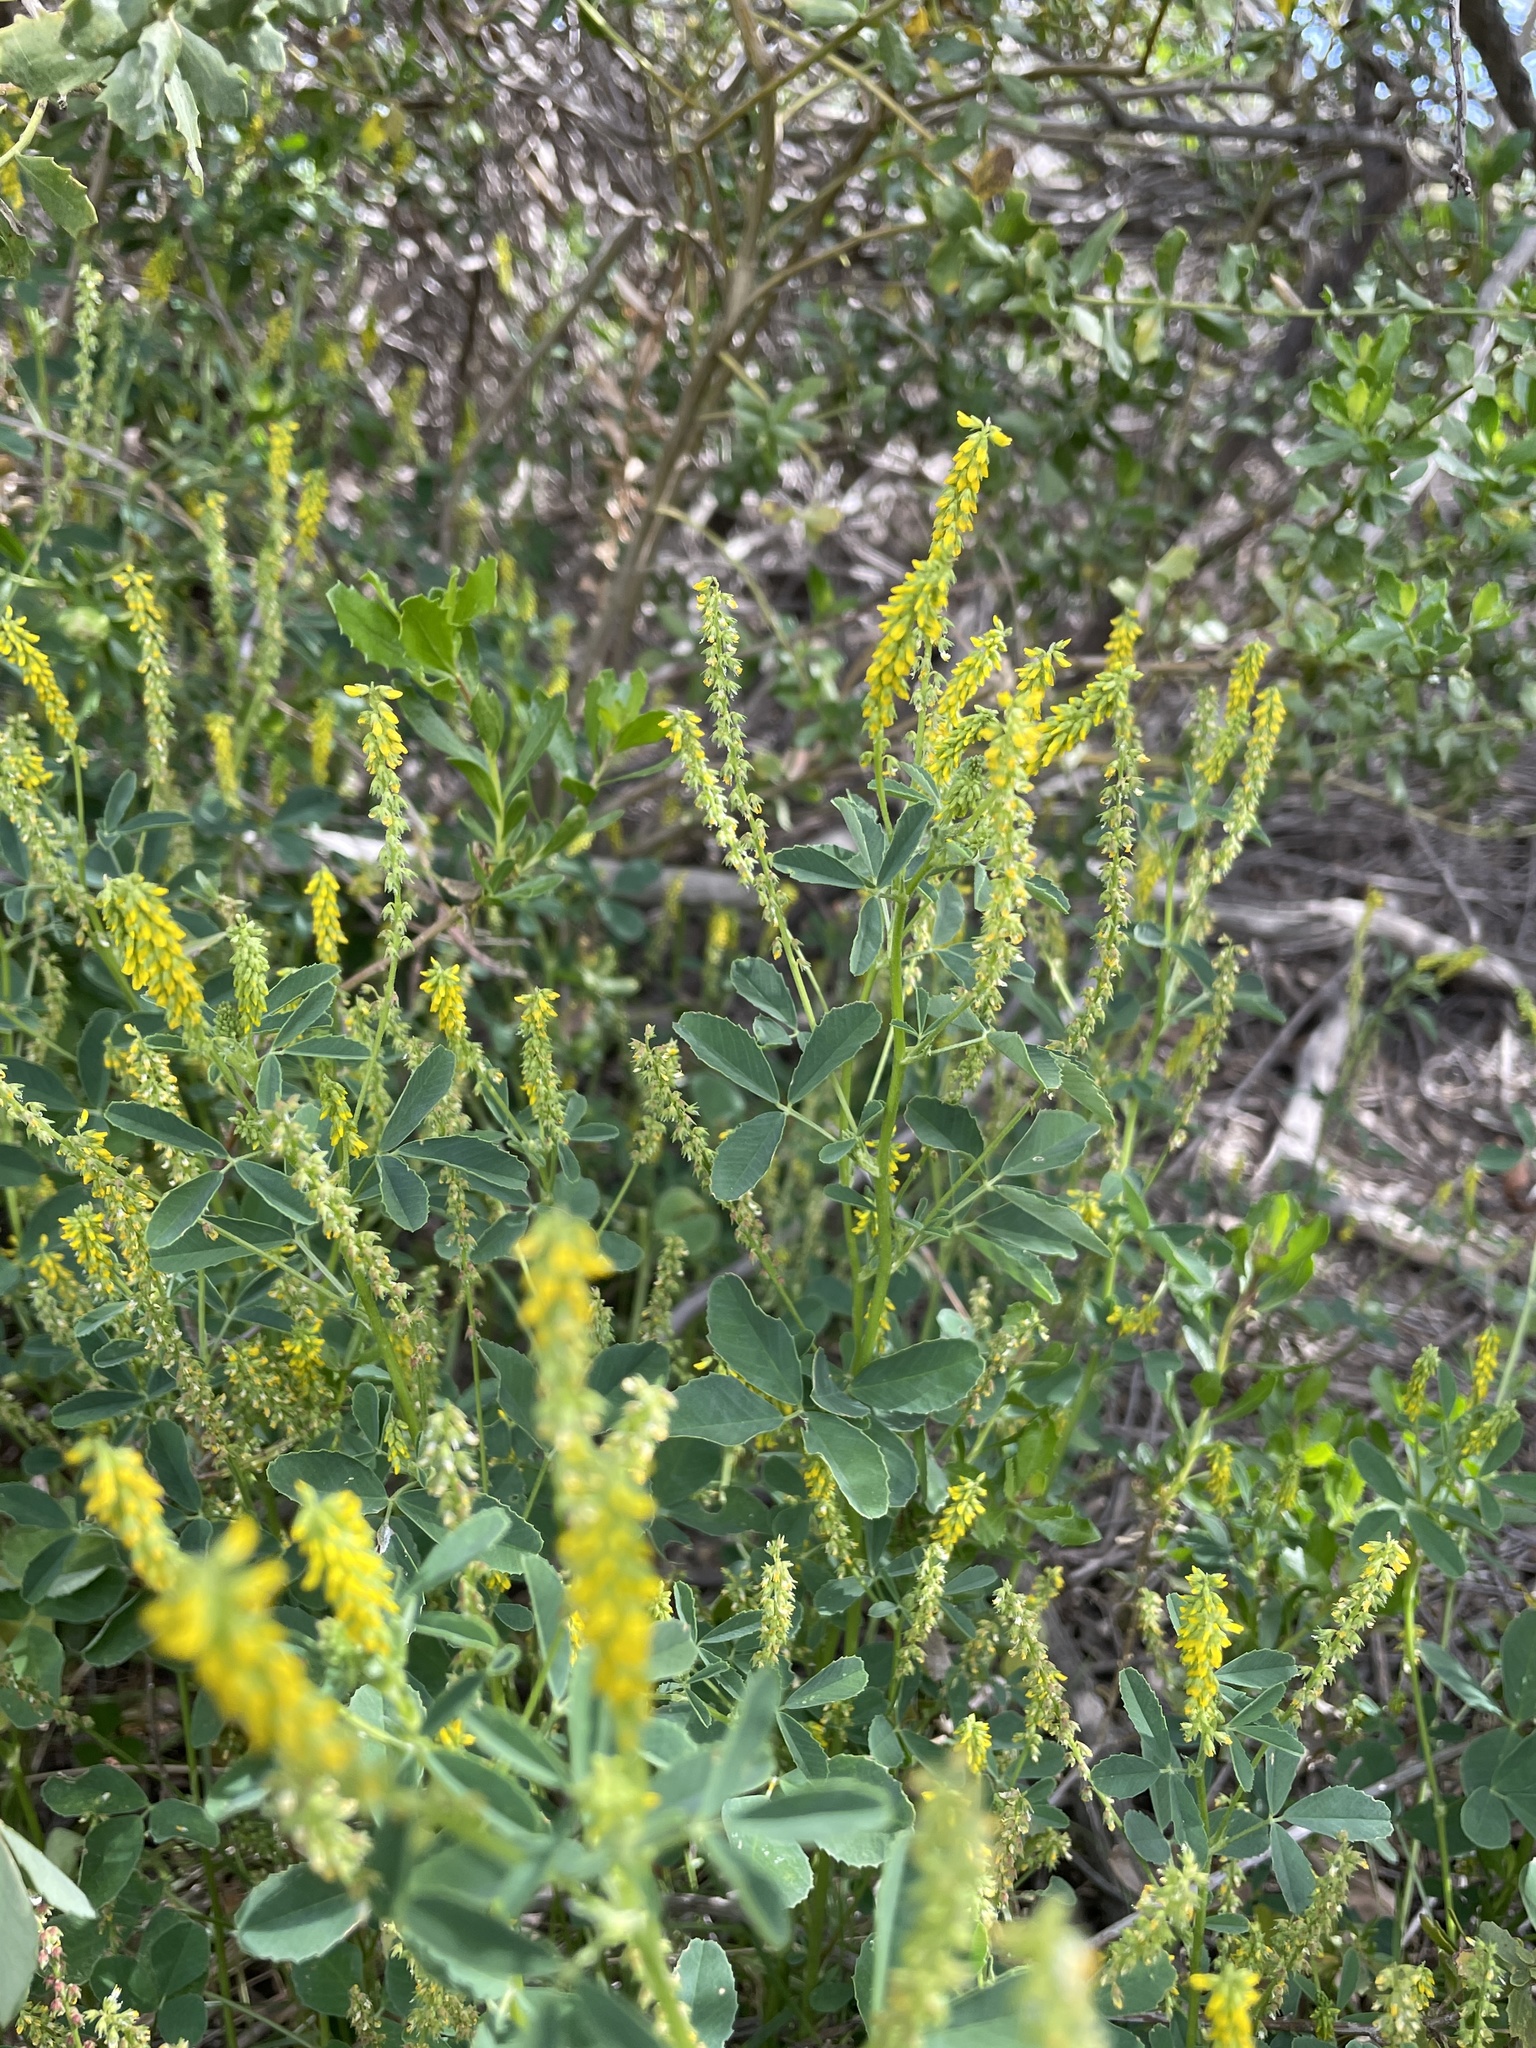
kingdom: Plantae
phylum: Tracheophyta
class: Magnoliopsida
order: Fabales
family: Fabaceae
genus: Melilotus
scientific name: Melilotus indicus
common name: Small melilot
